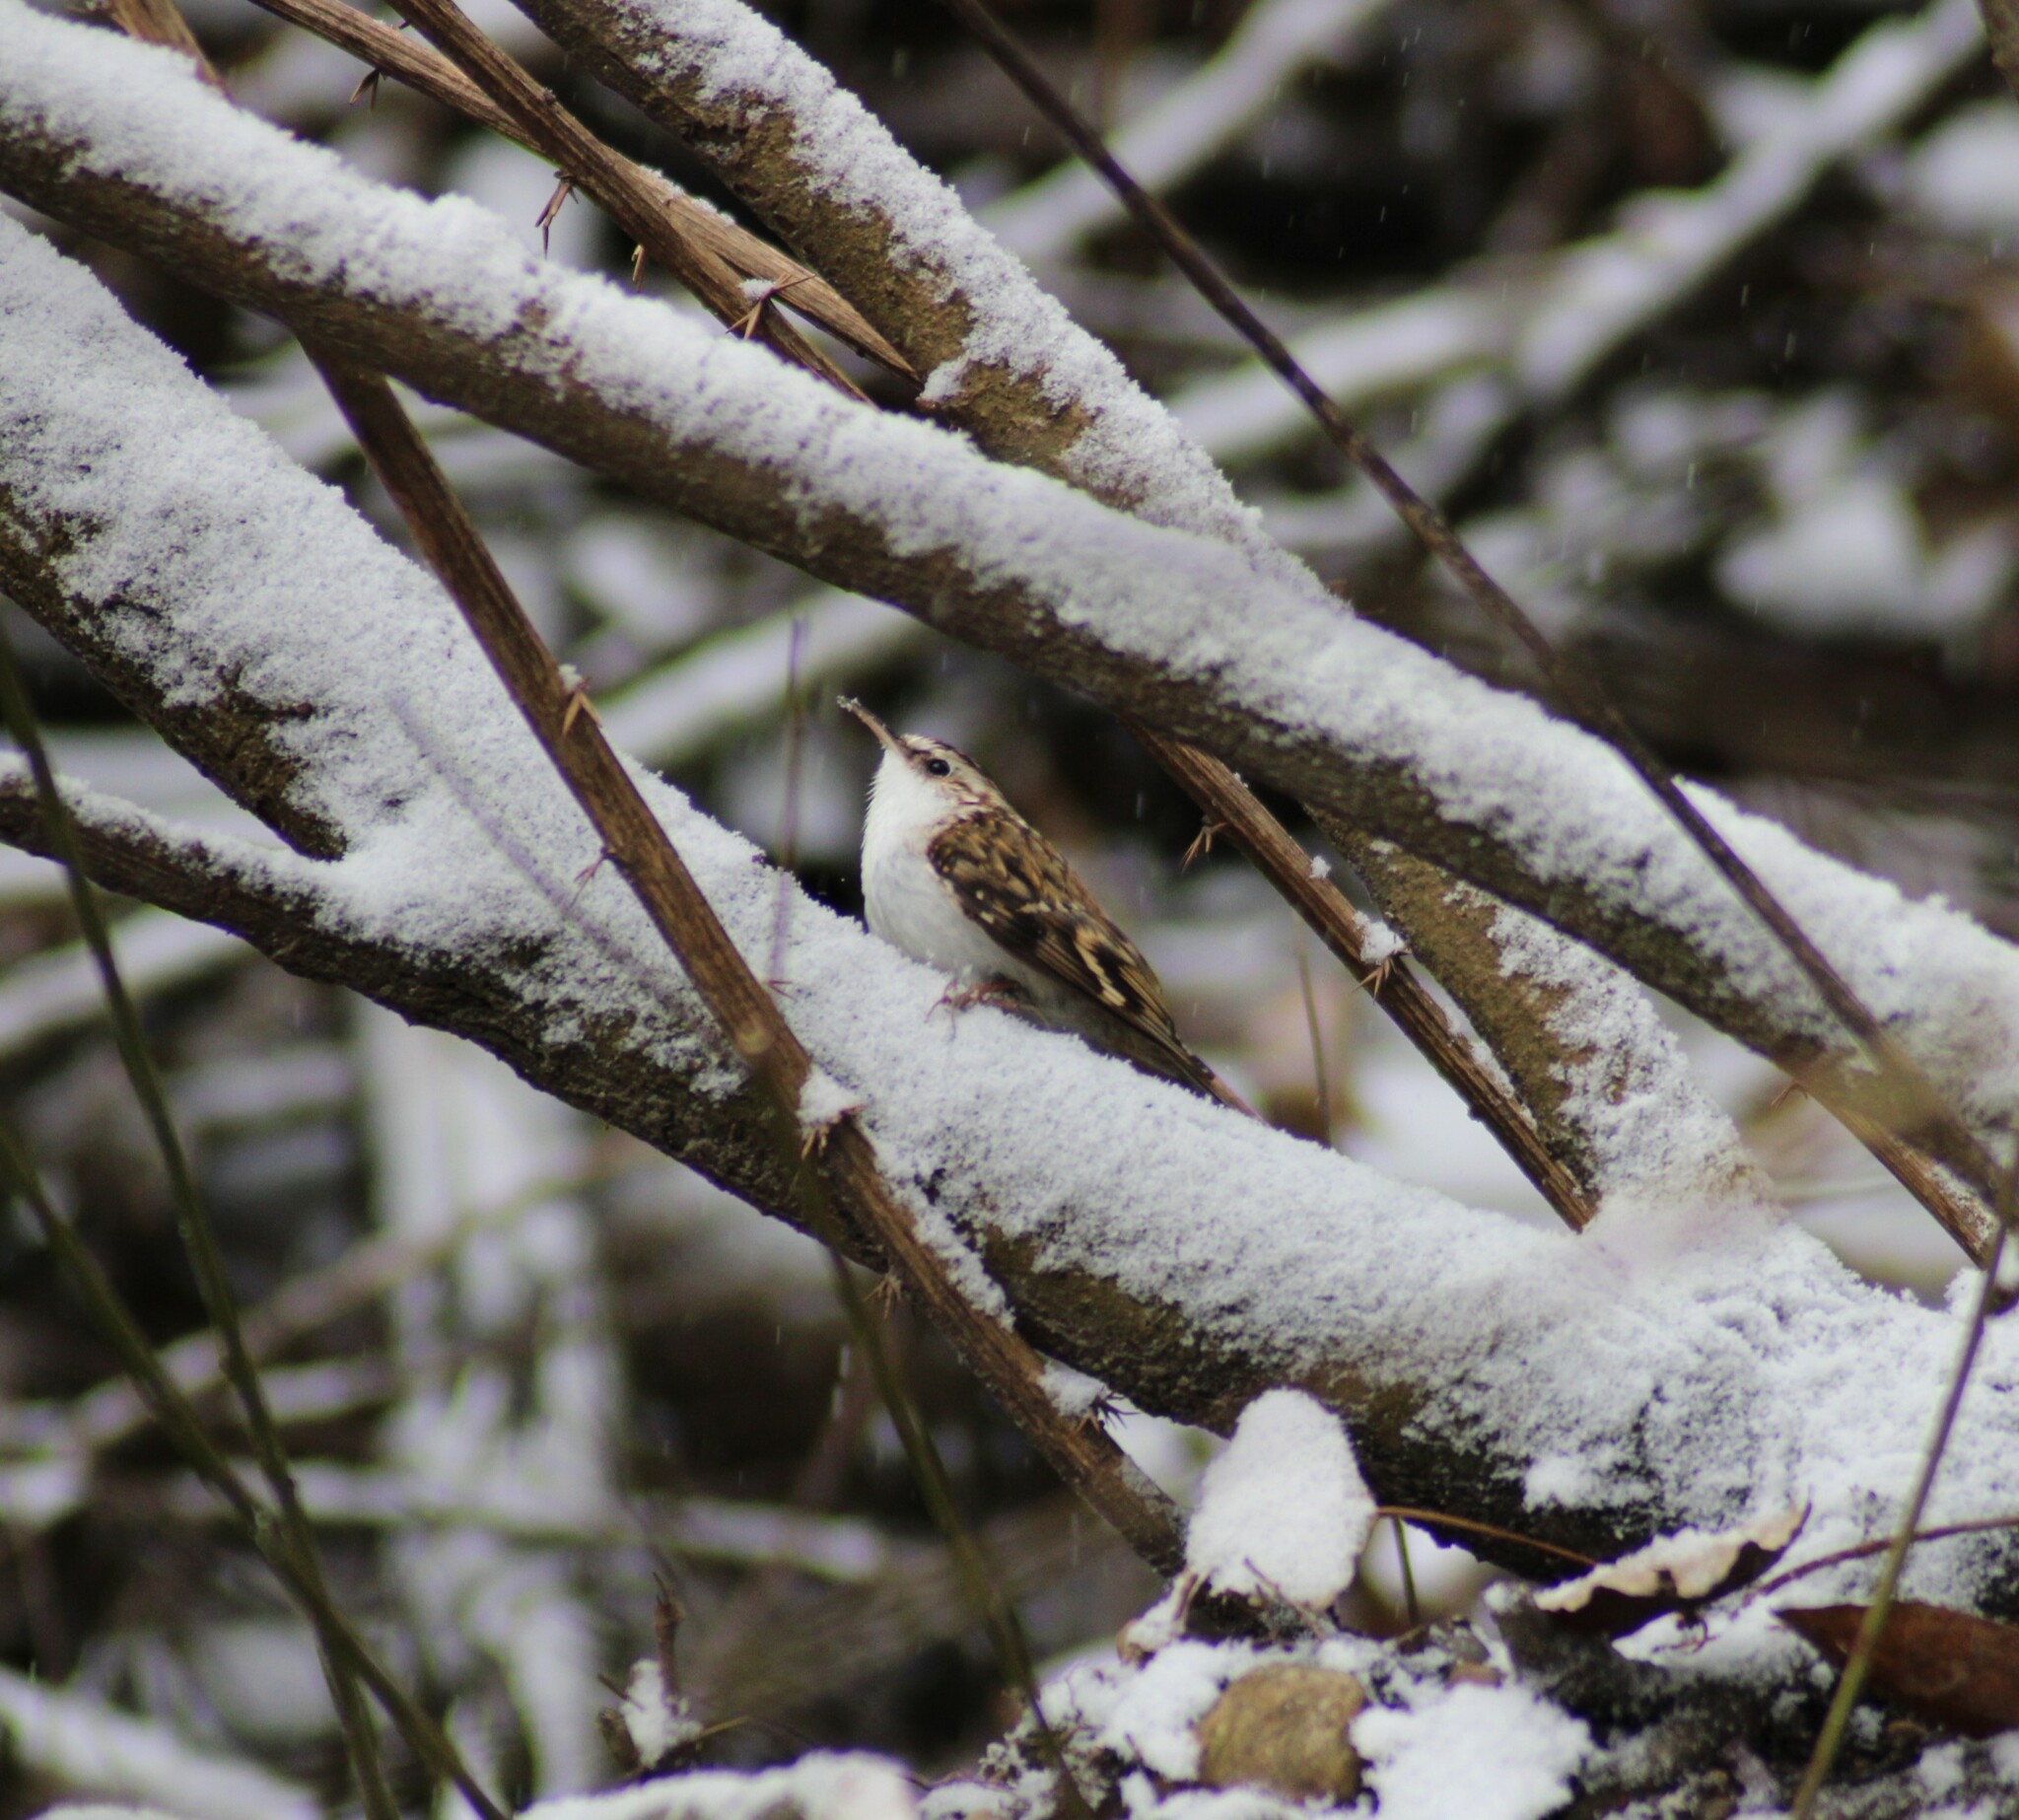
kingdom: Animalia
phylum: Chordata
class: Aves
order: Passeriformes
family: Certhiidae
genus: Certhia
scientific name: Certhia familiaris
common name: Eurasian treecreeper
